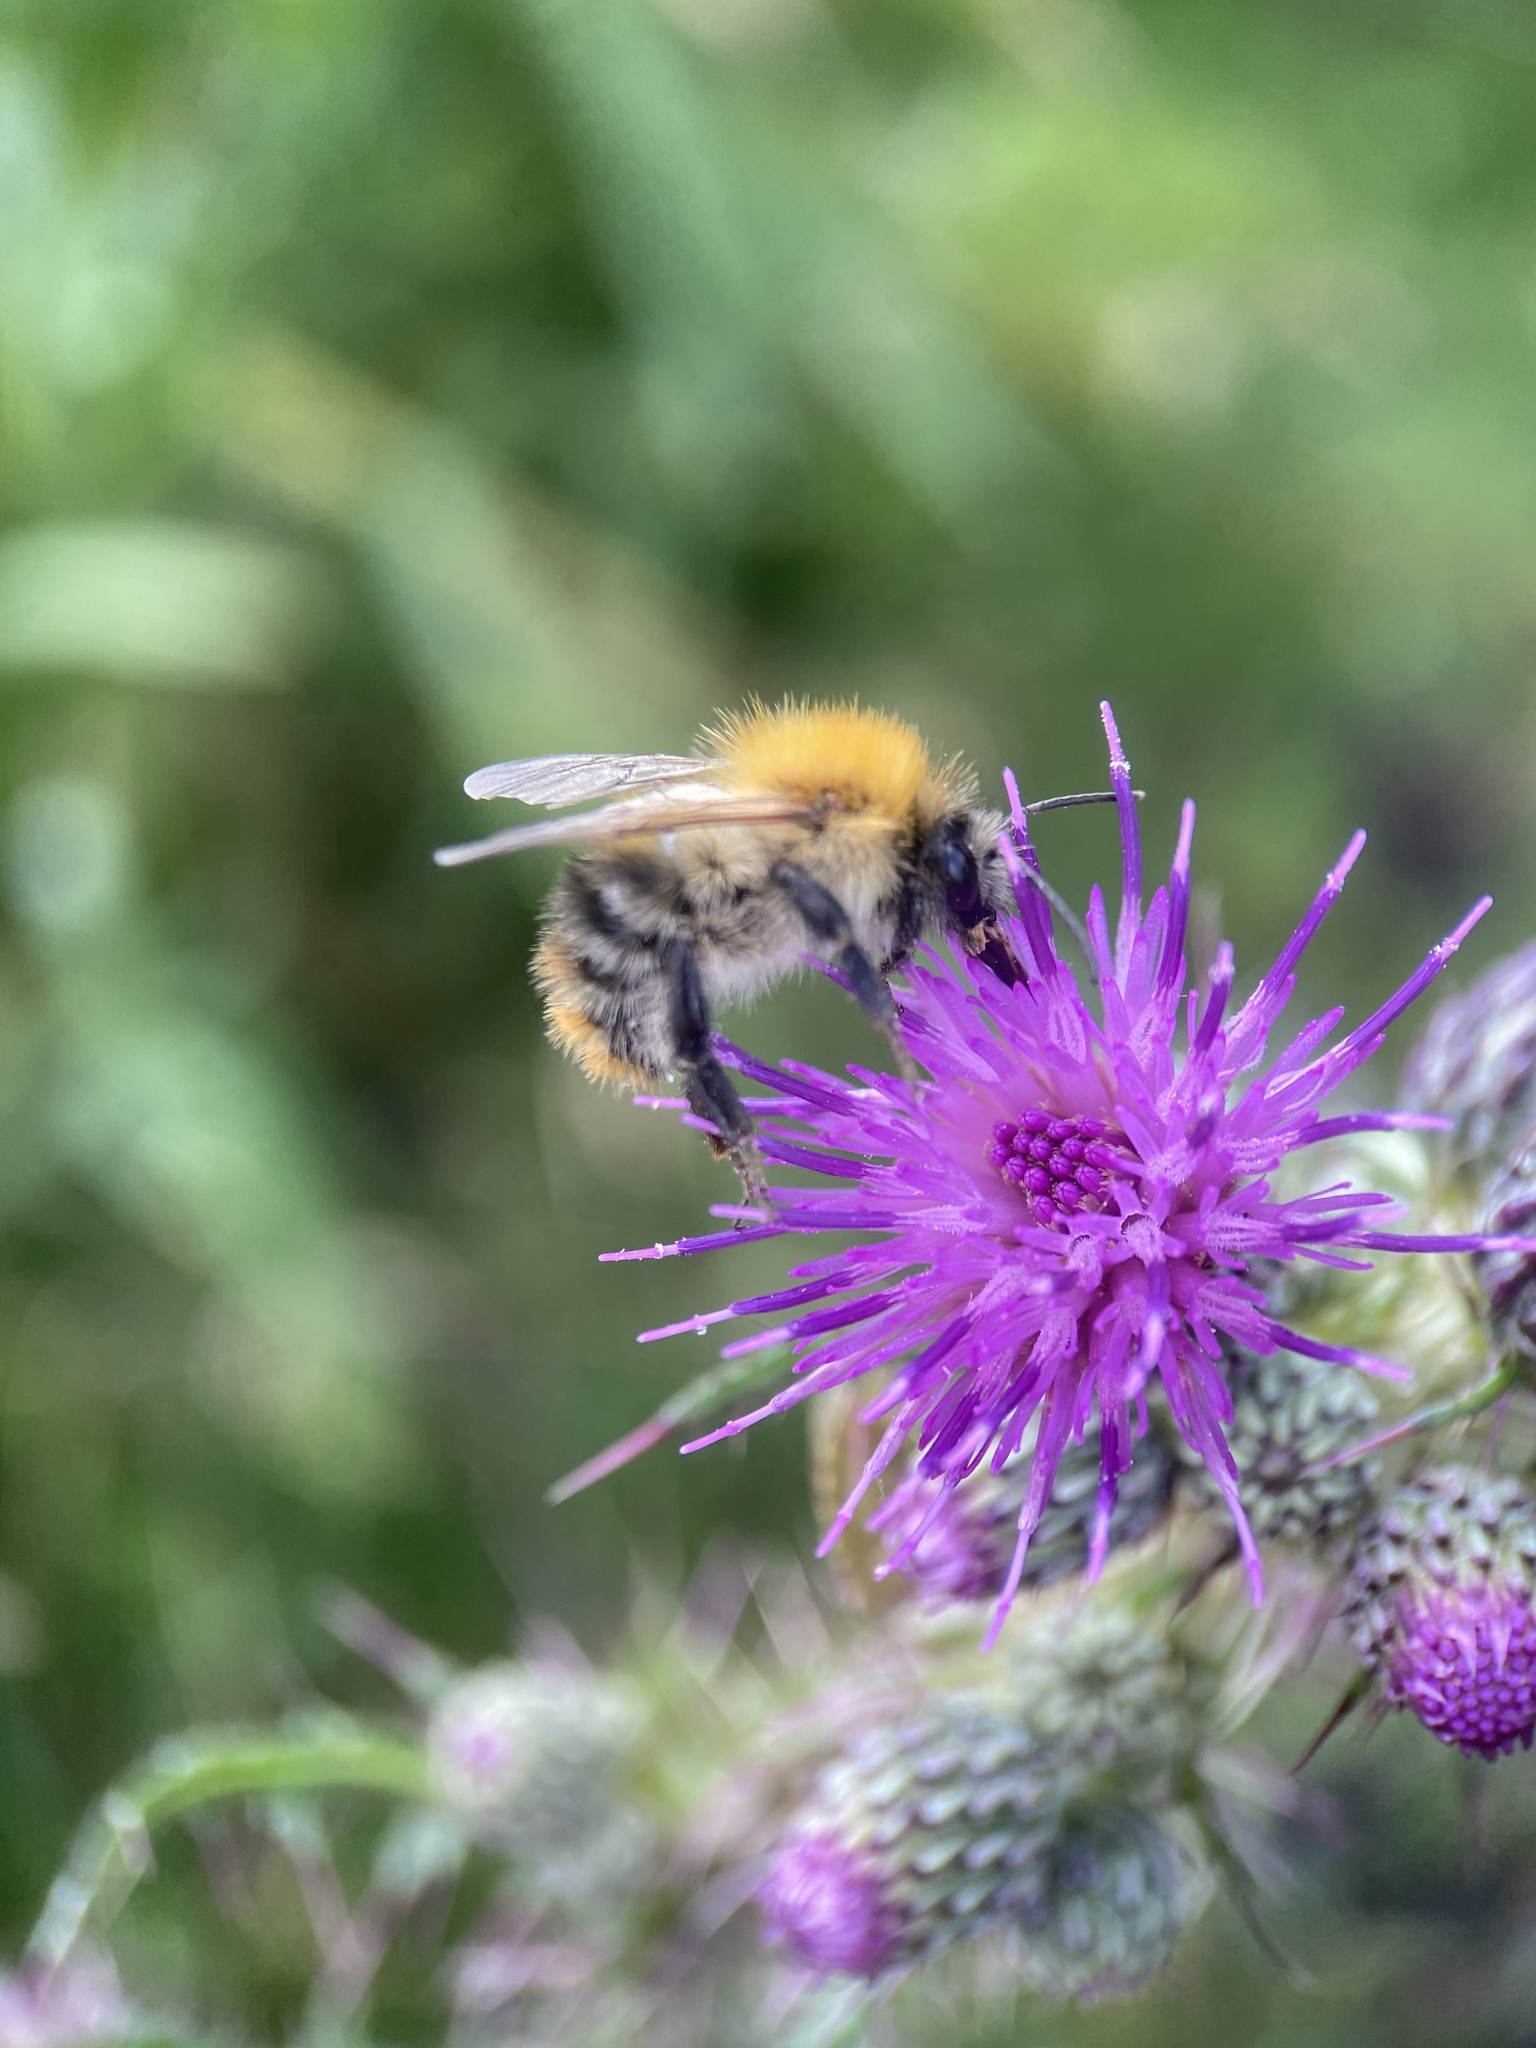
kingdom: Animalia
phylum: Arthropoda
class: Insecta
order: Hymenoptera
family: Apidae
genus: Bombus
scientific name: Bombus pascuorum
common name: Common carder bee
